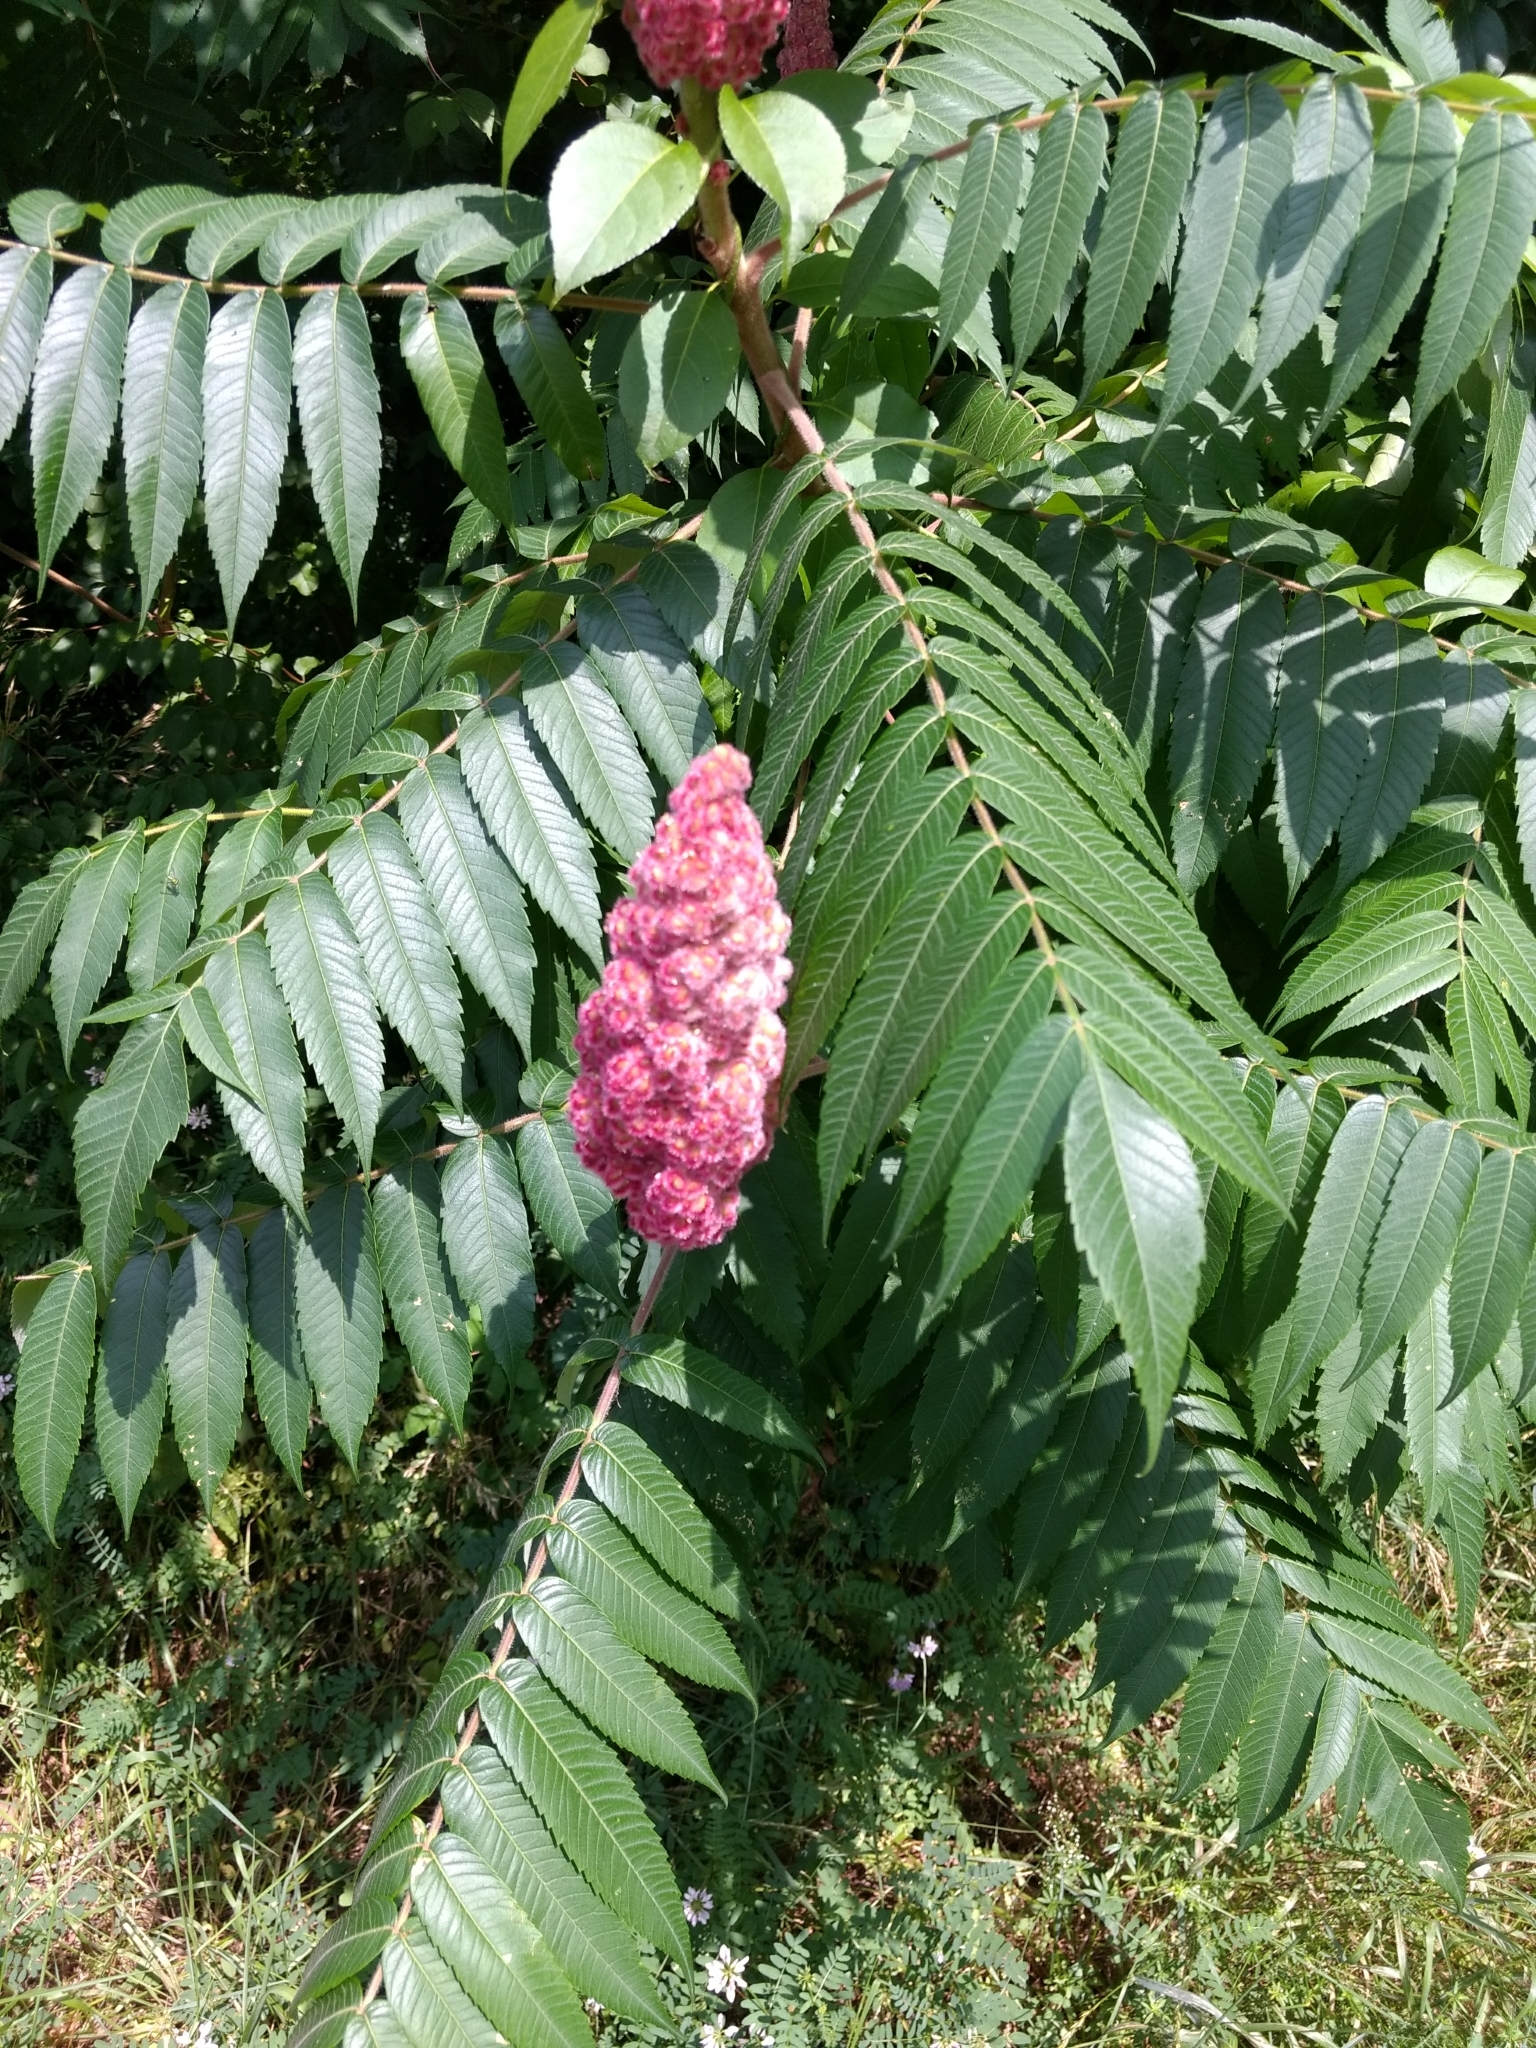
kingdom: Plantae
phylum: Tracheophyta
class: Magnoliopsida
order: Sapindales
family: Anacardiaceae
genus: Rhus
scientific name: Rhus typhina
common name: Staghorn sumac
